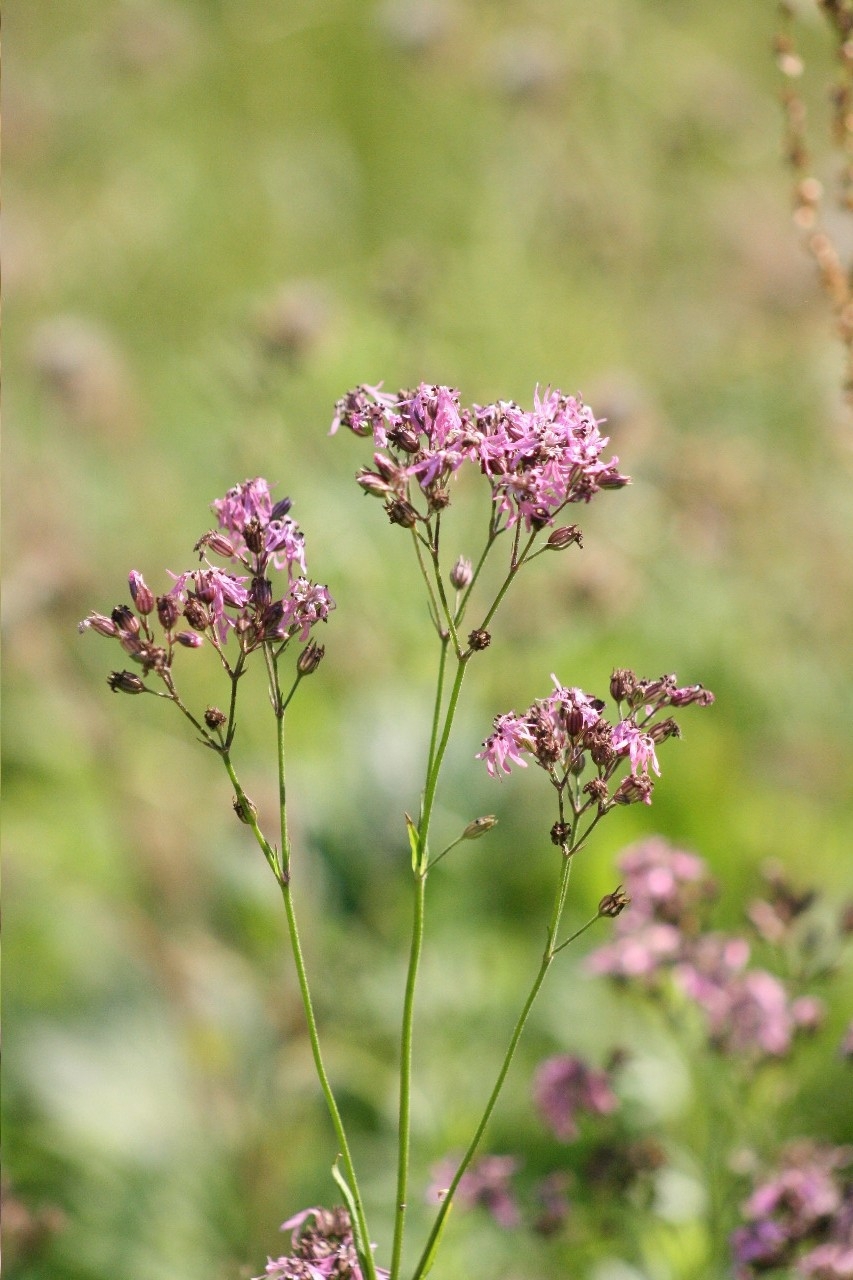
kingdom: Plantae
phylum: Tracheophyta
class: Magnoliopsida
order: Caryophyllales
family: Caryophyllaceae
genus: Silene
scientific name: Silene flos-cuculi
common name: Ragged-robin
